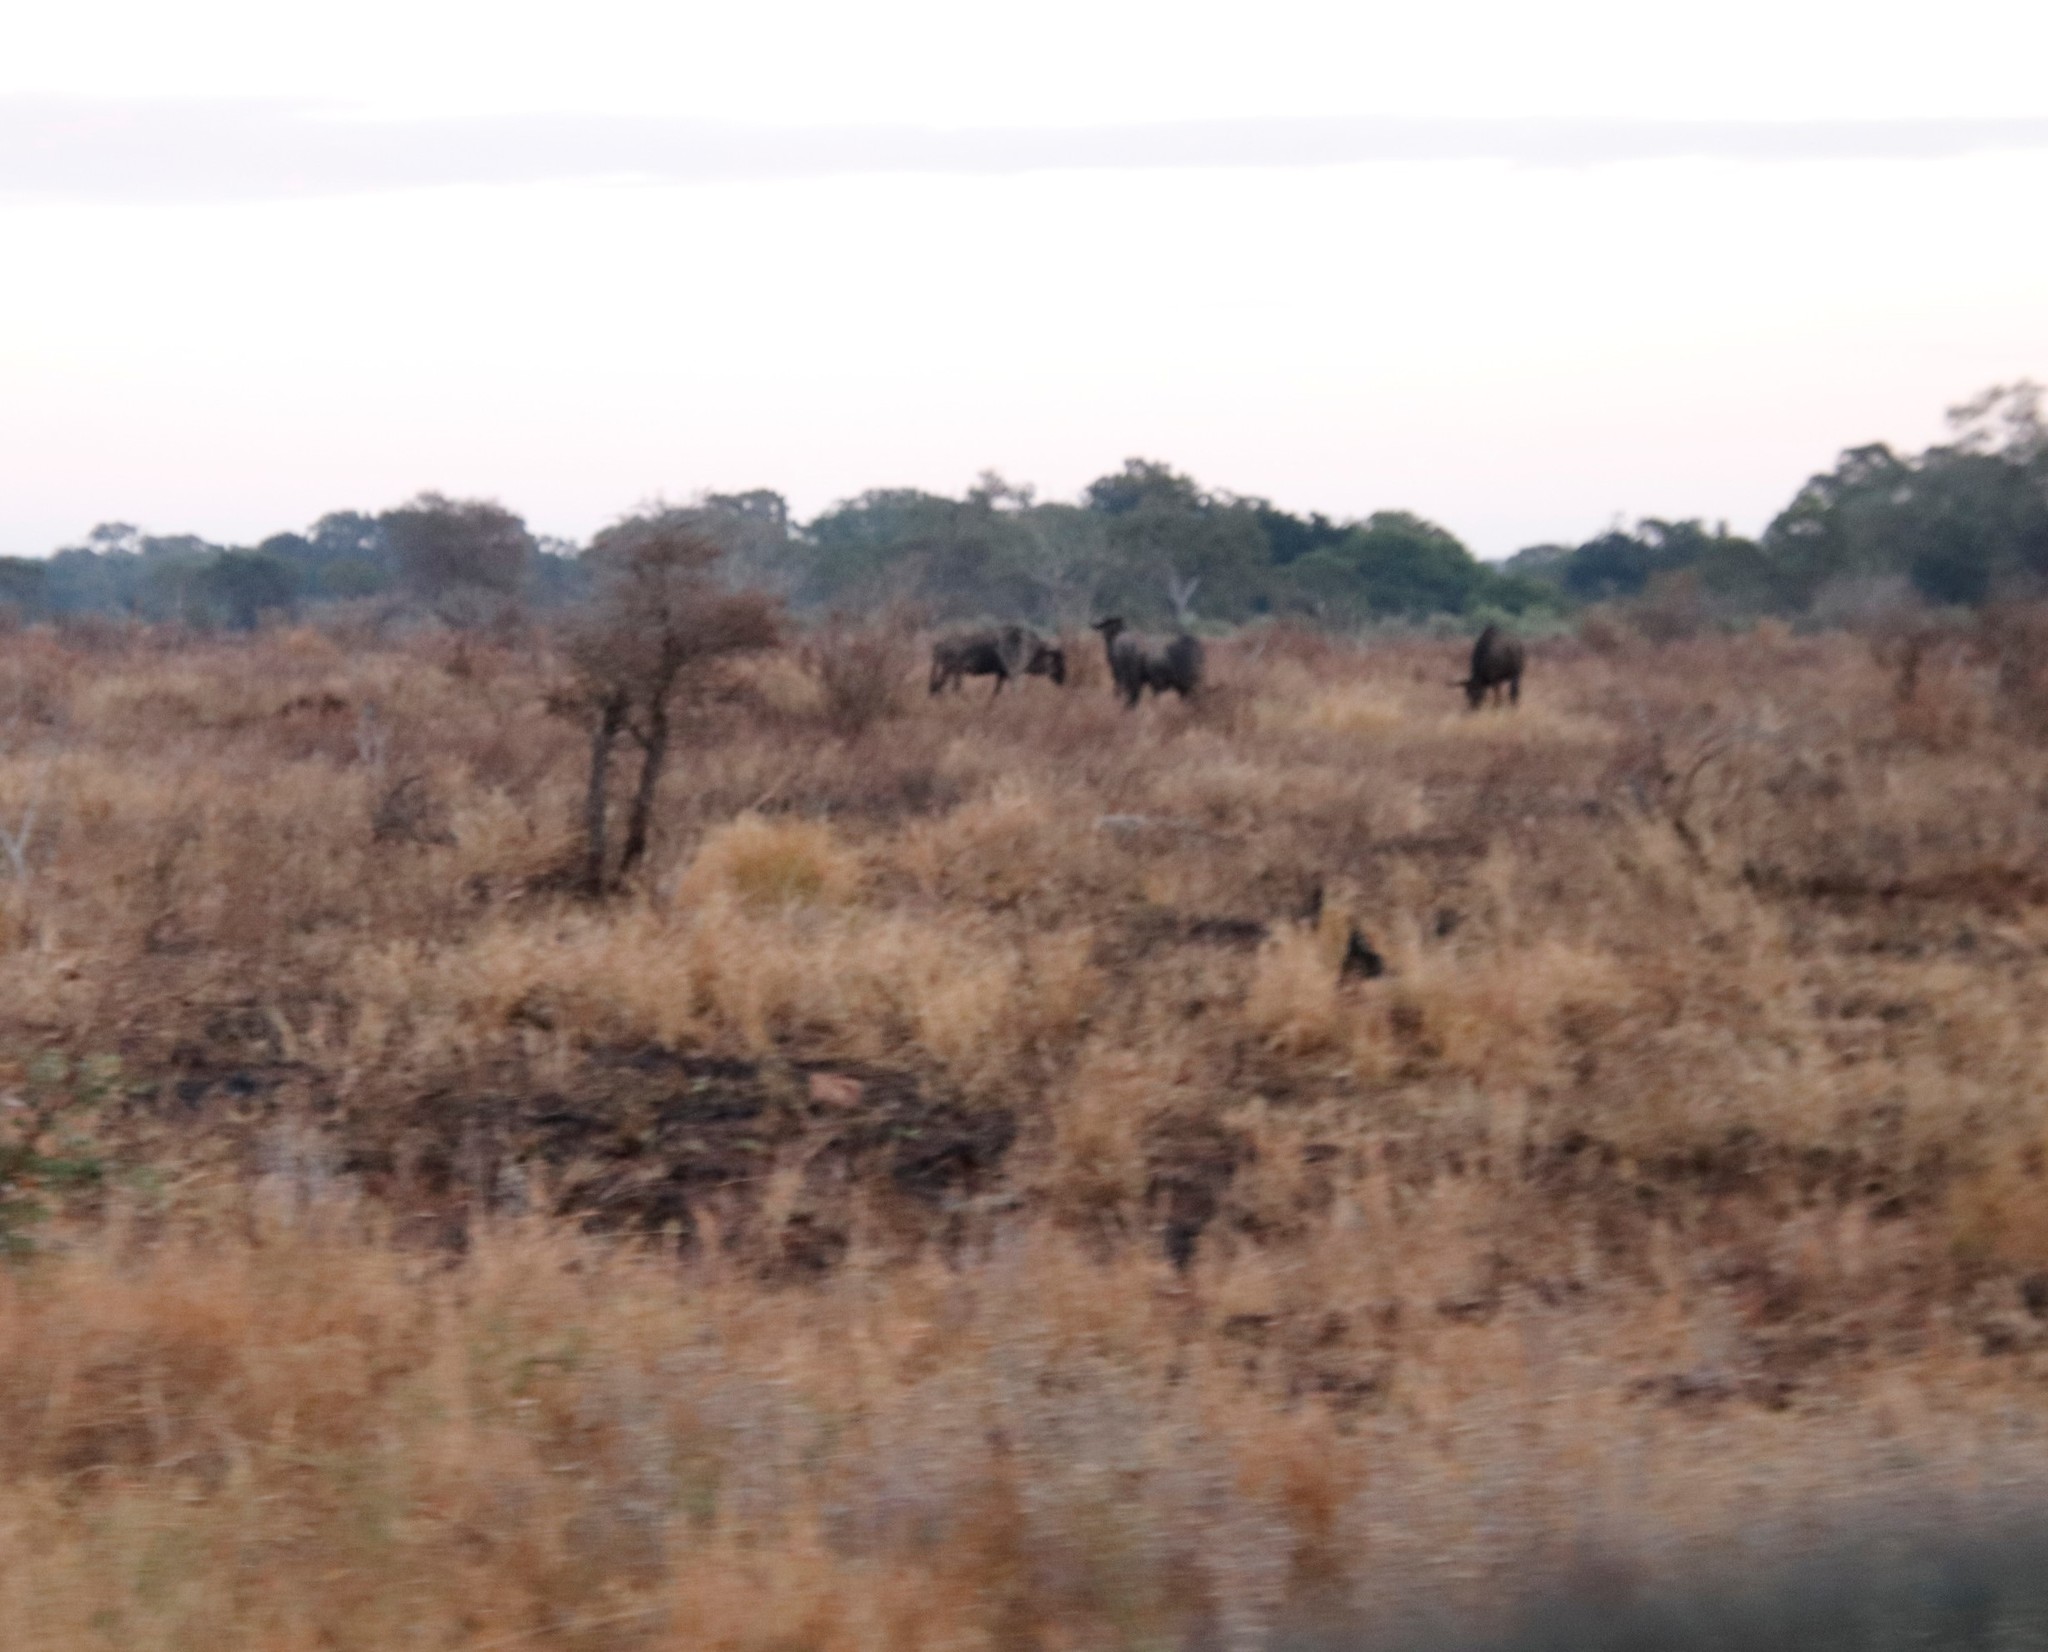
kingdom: Animalia
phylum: Chordata
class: Mammalia
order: Artiodactyla
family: Bovidae
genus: Connochaetes
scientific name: Connochaetes taurinus
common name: Blue wildebeest
